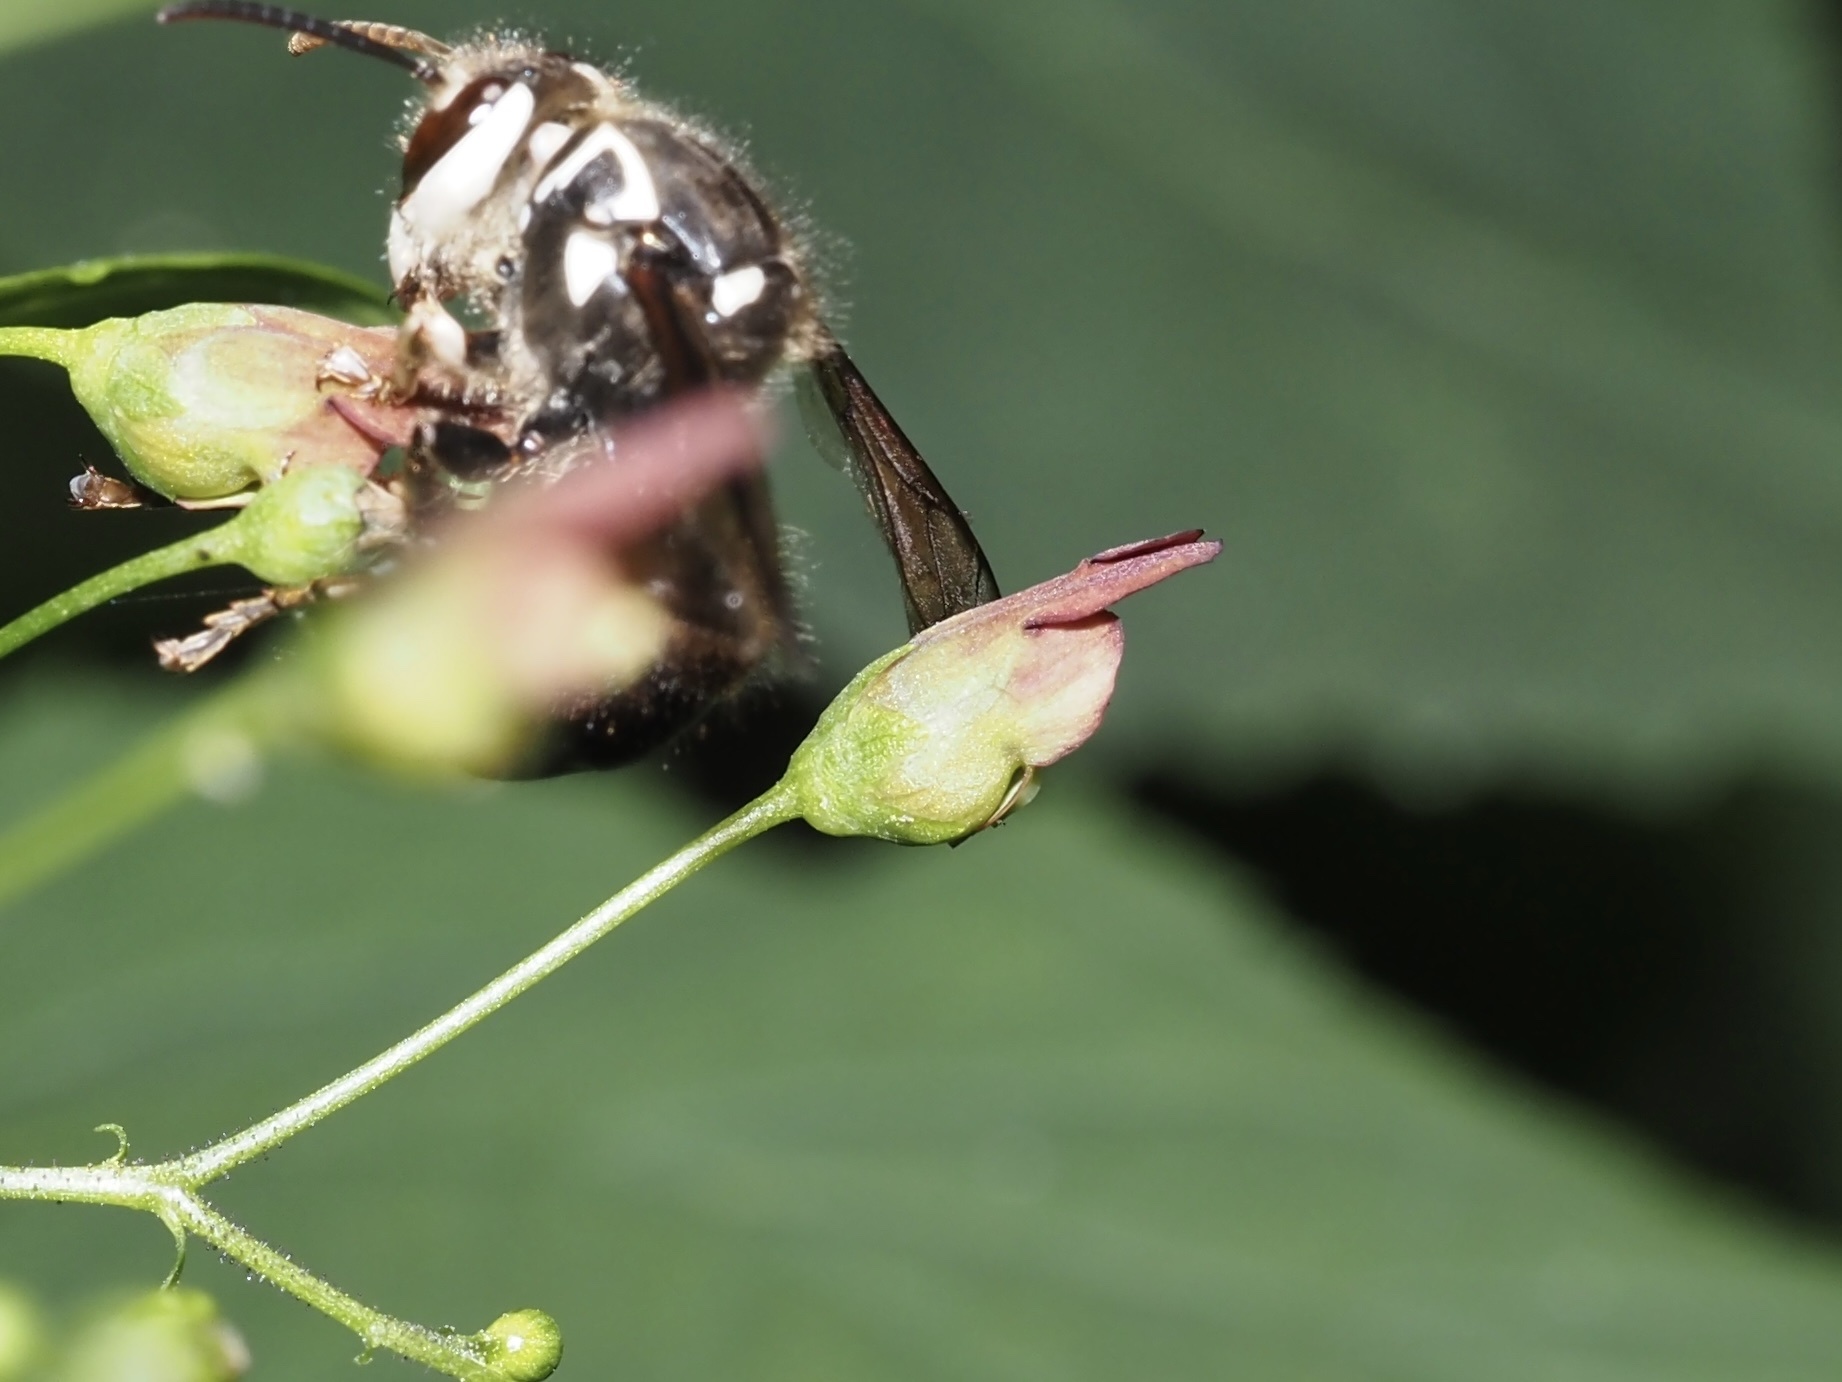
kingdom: Plantae
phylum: Tracheophyta
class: Magnoliopsida
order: Lamiales
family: Scrophulariaceae
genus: Scrophularia
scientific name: Scrophularia marilandica
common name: Eastern figwort
